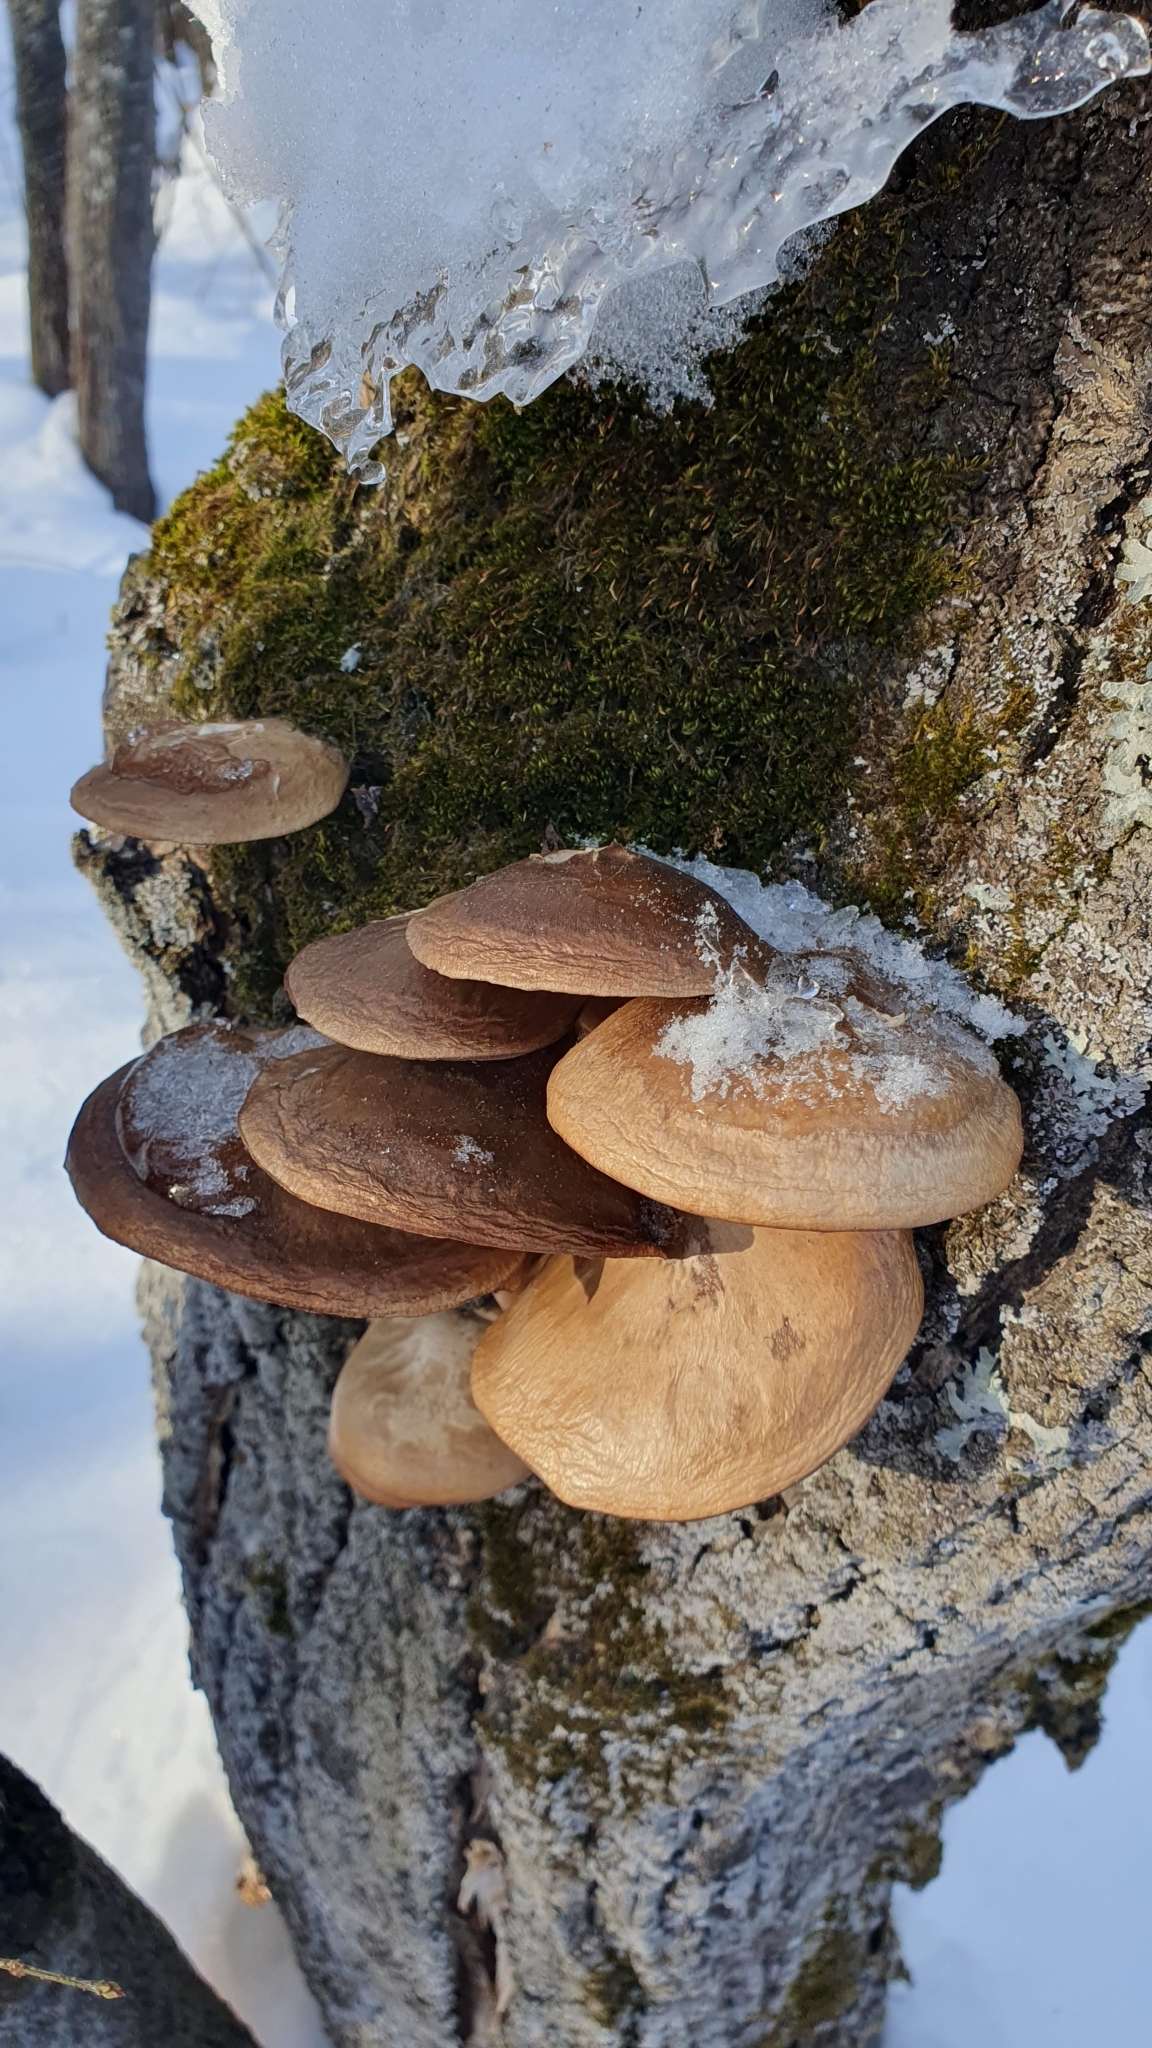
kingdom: Fungi
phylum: Basidiomycota
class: Agaricomycetes
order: Agaricales
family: Pleurotaceae
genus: Pleurotus
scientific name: Pleurotus ostreatus
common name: Oyster mushroom
